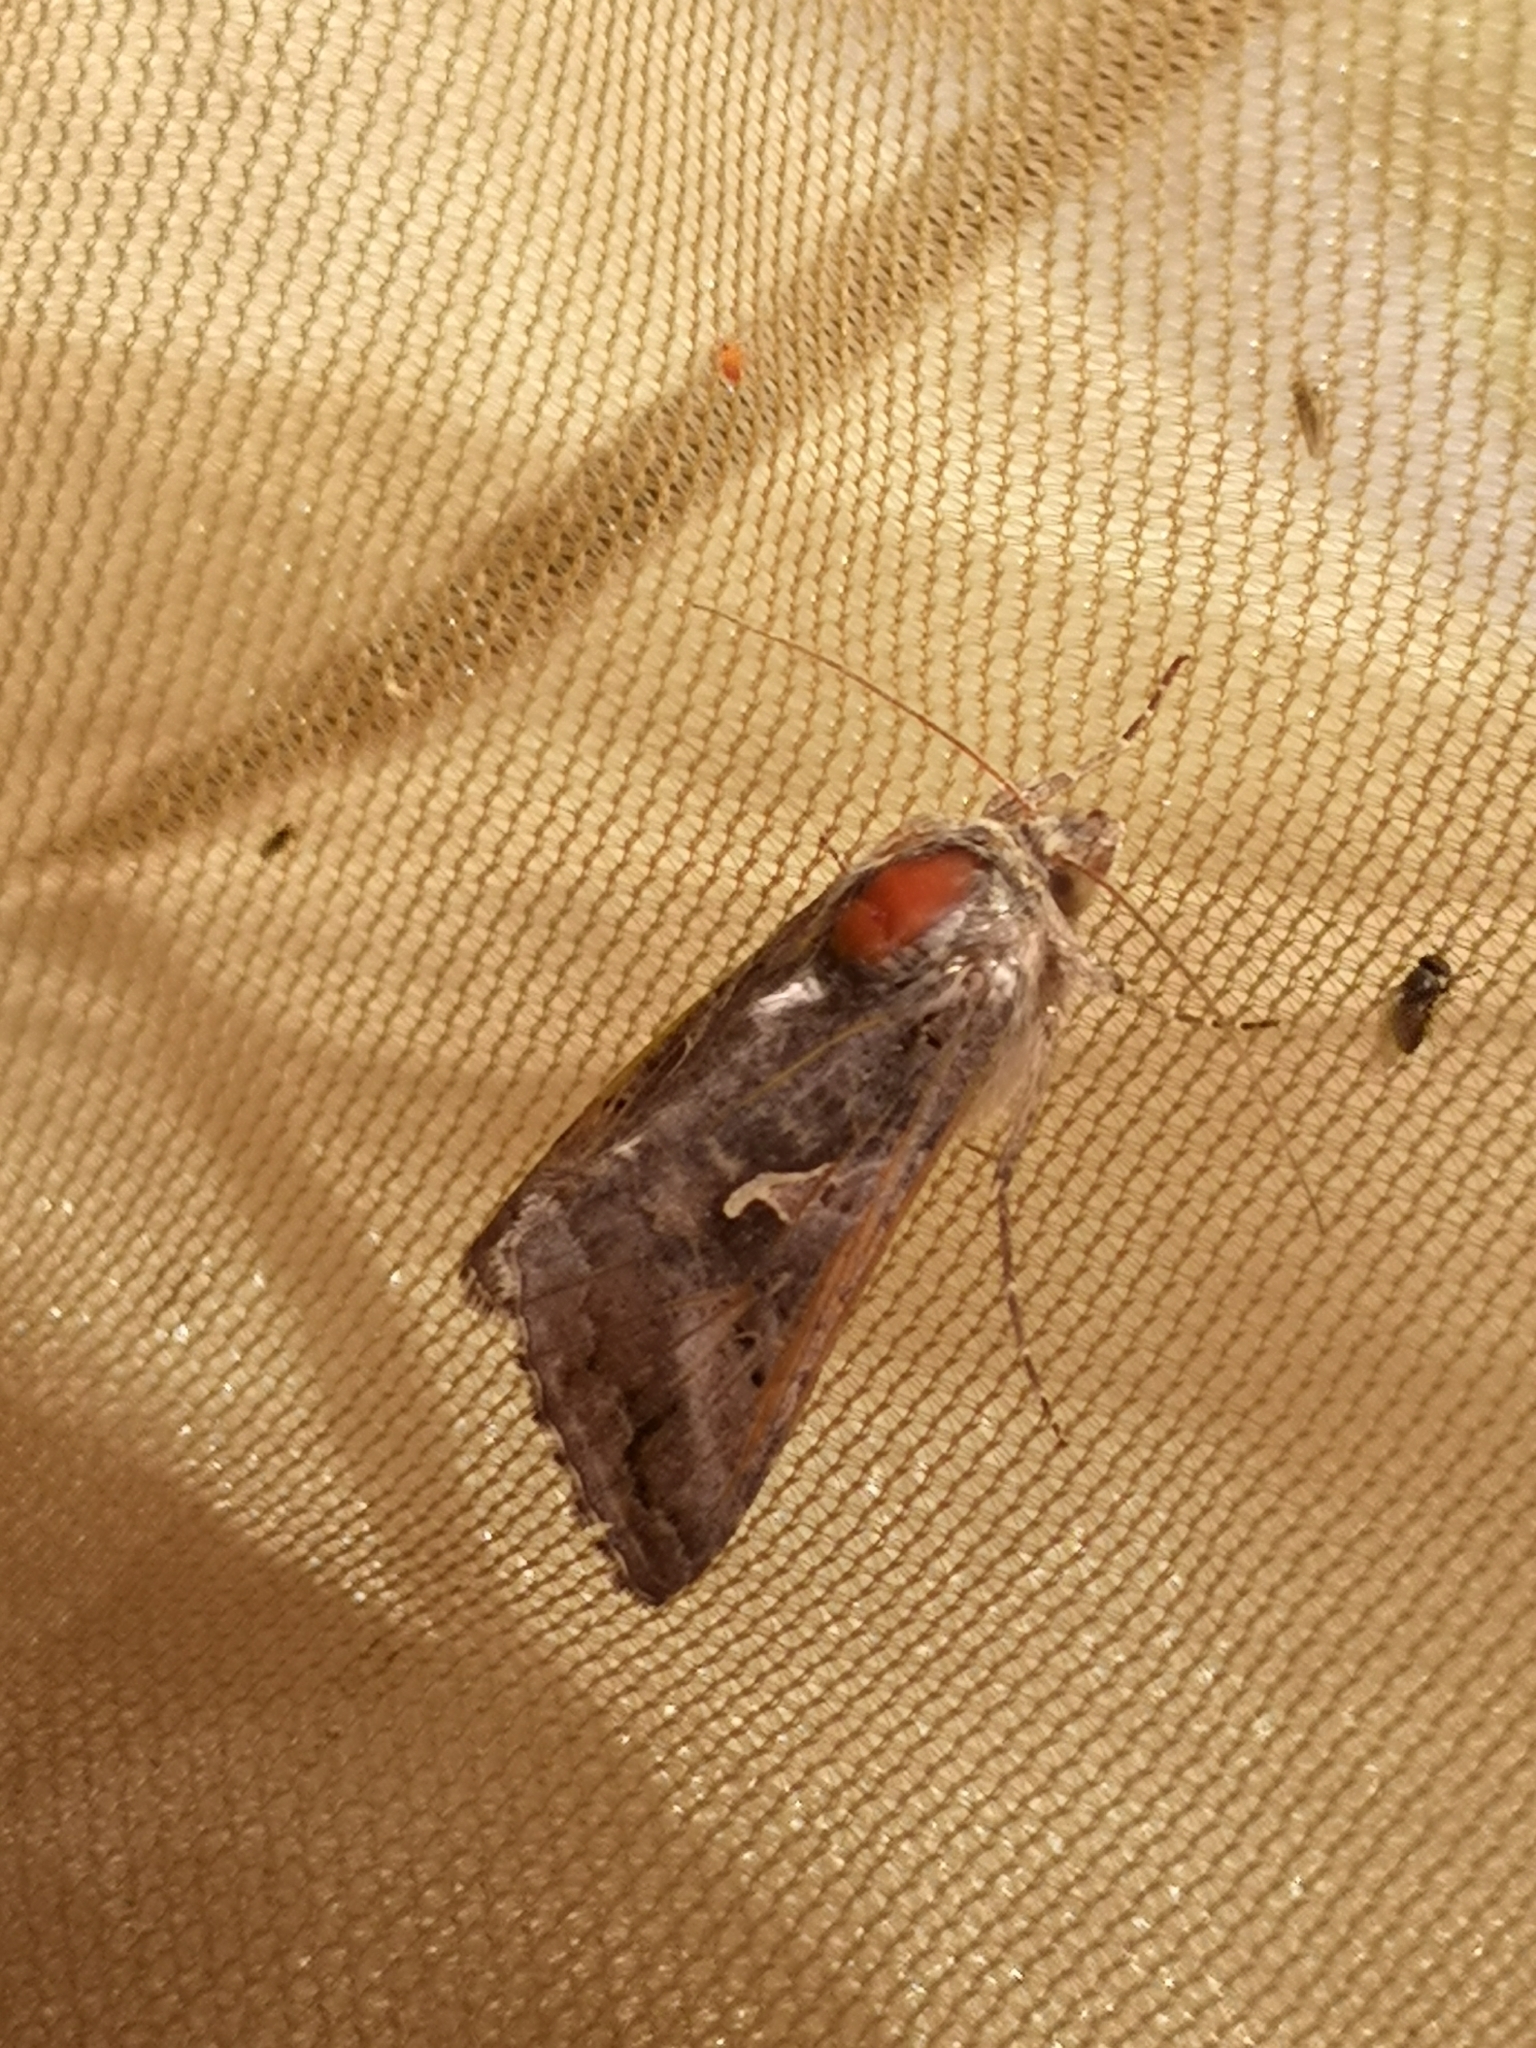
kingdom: Animalia
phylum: Arthropoda
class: Insecta
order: Lepidoptera
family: Noctuidae
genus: Autographa
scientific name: Autographa gamma
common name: Silver y
